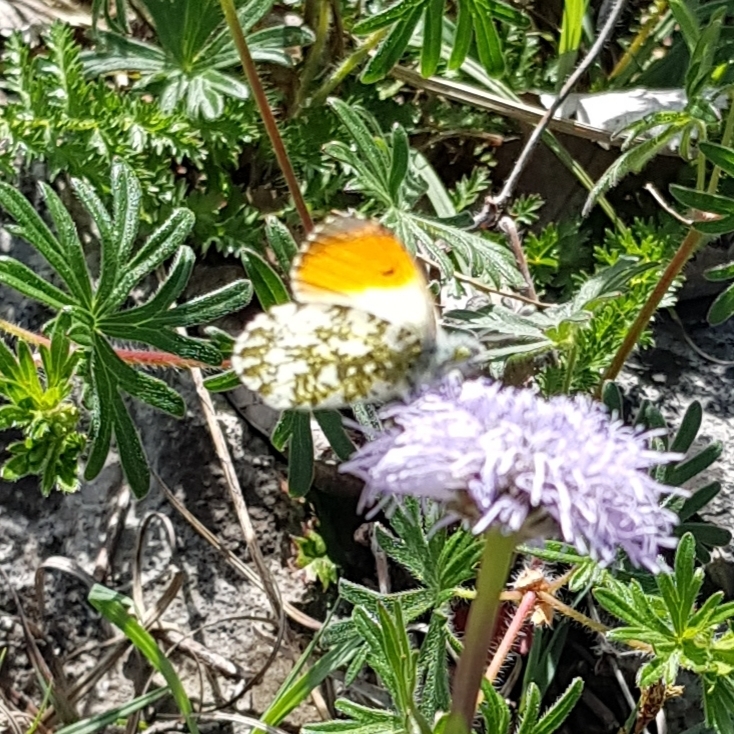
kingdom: Animalia
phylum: Arthropoda
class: Insecta
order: Lepidoptera
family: Pieridae
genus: Anthocharis
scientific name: Anthocharis cardamines
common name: Orange-tip
